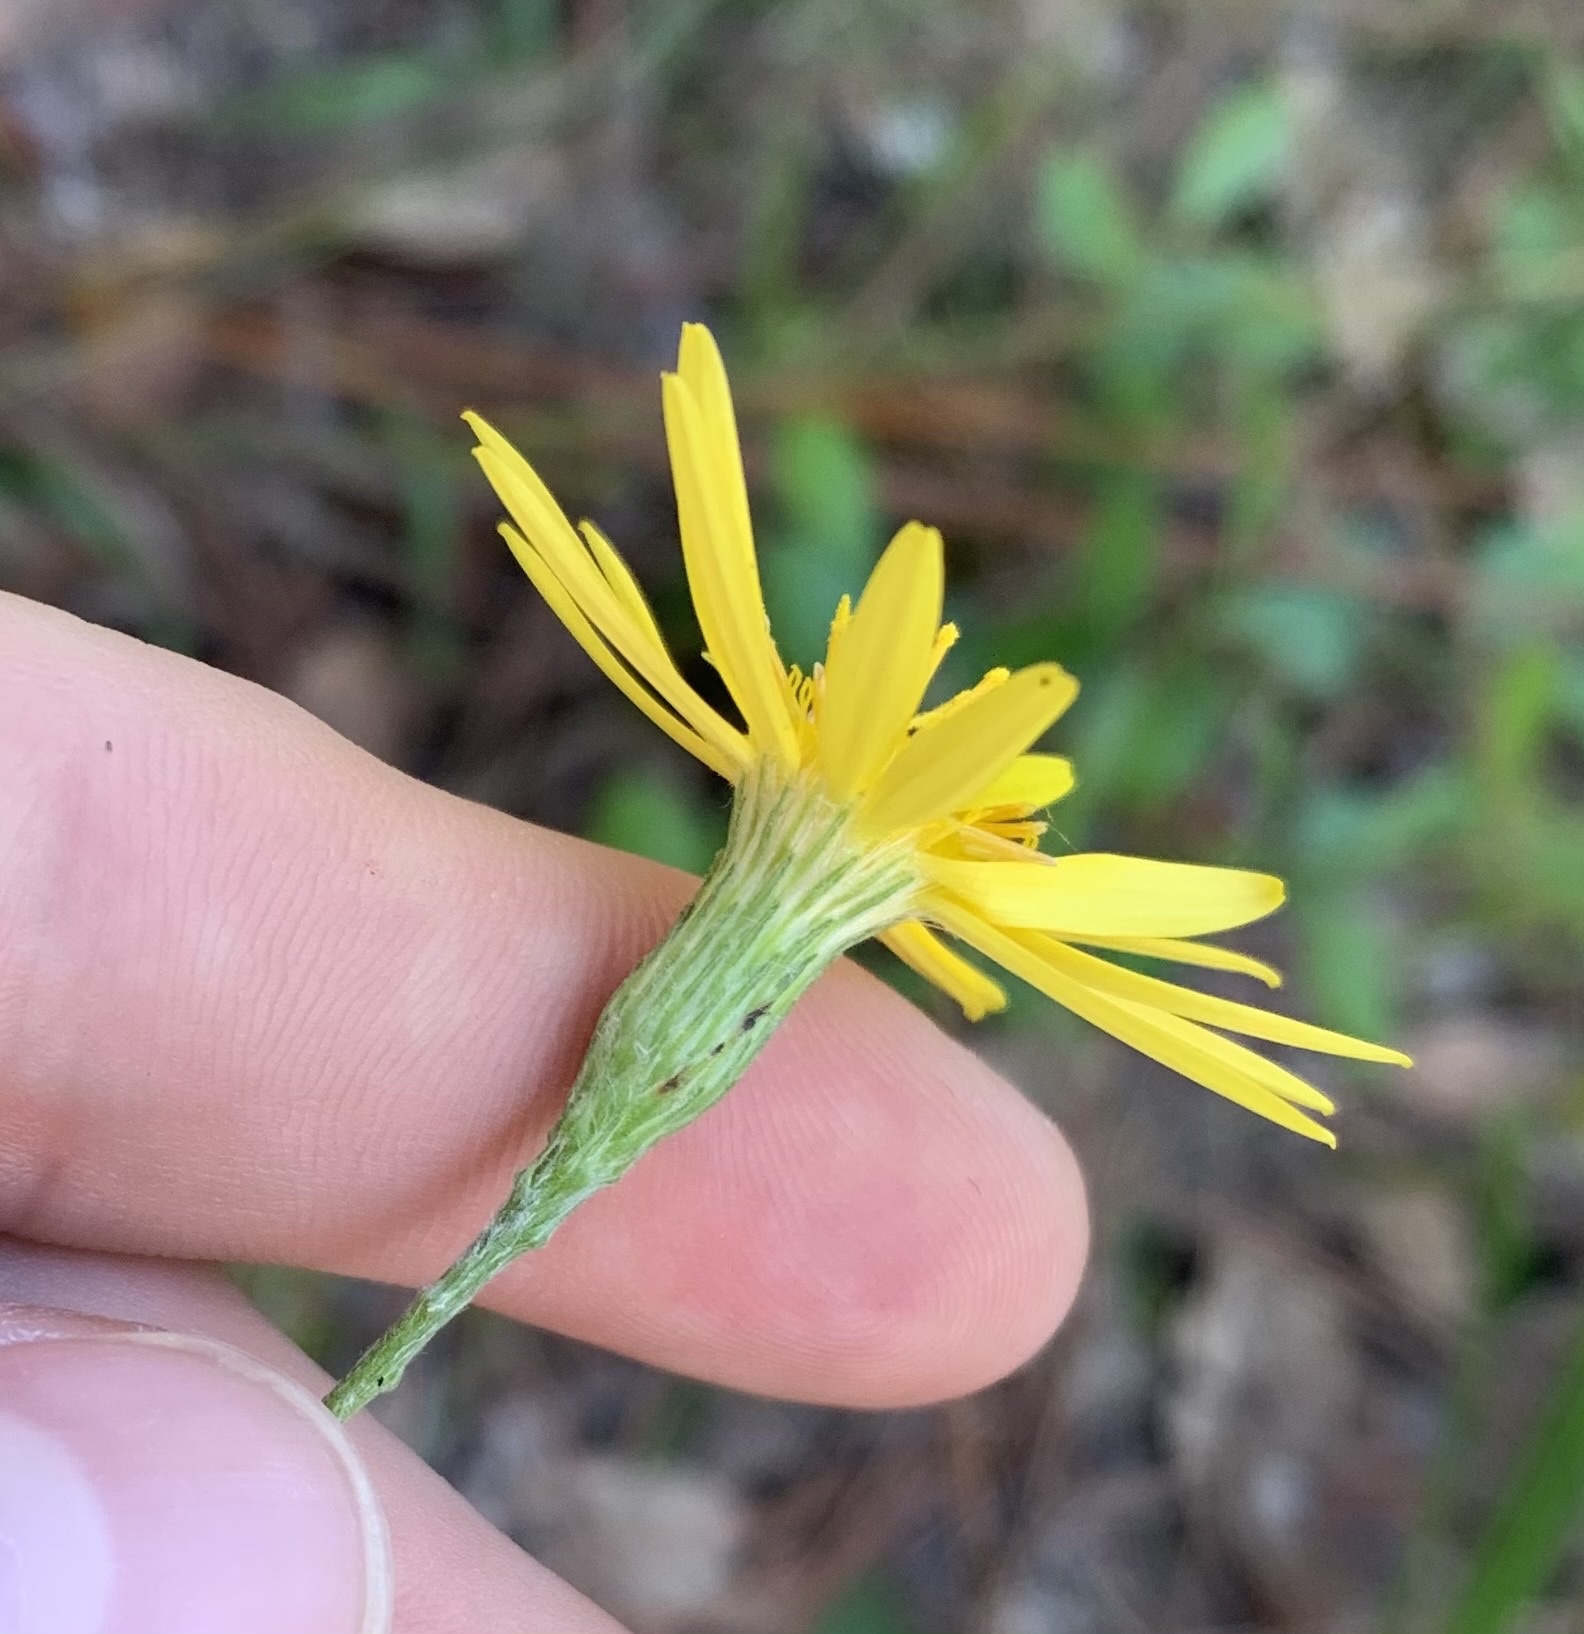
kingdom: Plantae
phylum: Tracheophyta
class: Magnoliopsida
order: Asterales
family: Asteraceae
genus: Pityopsis
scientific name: Pityopsis tracyi
